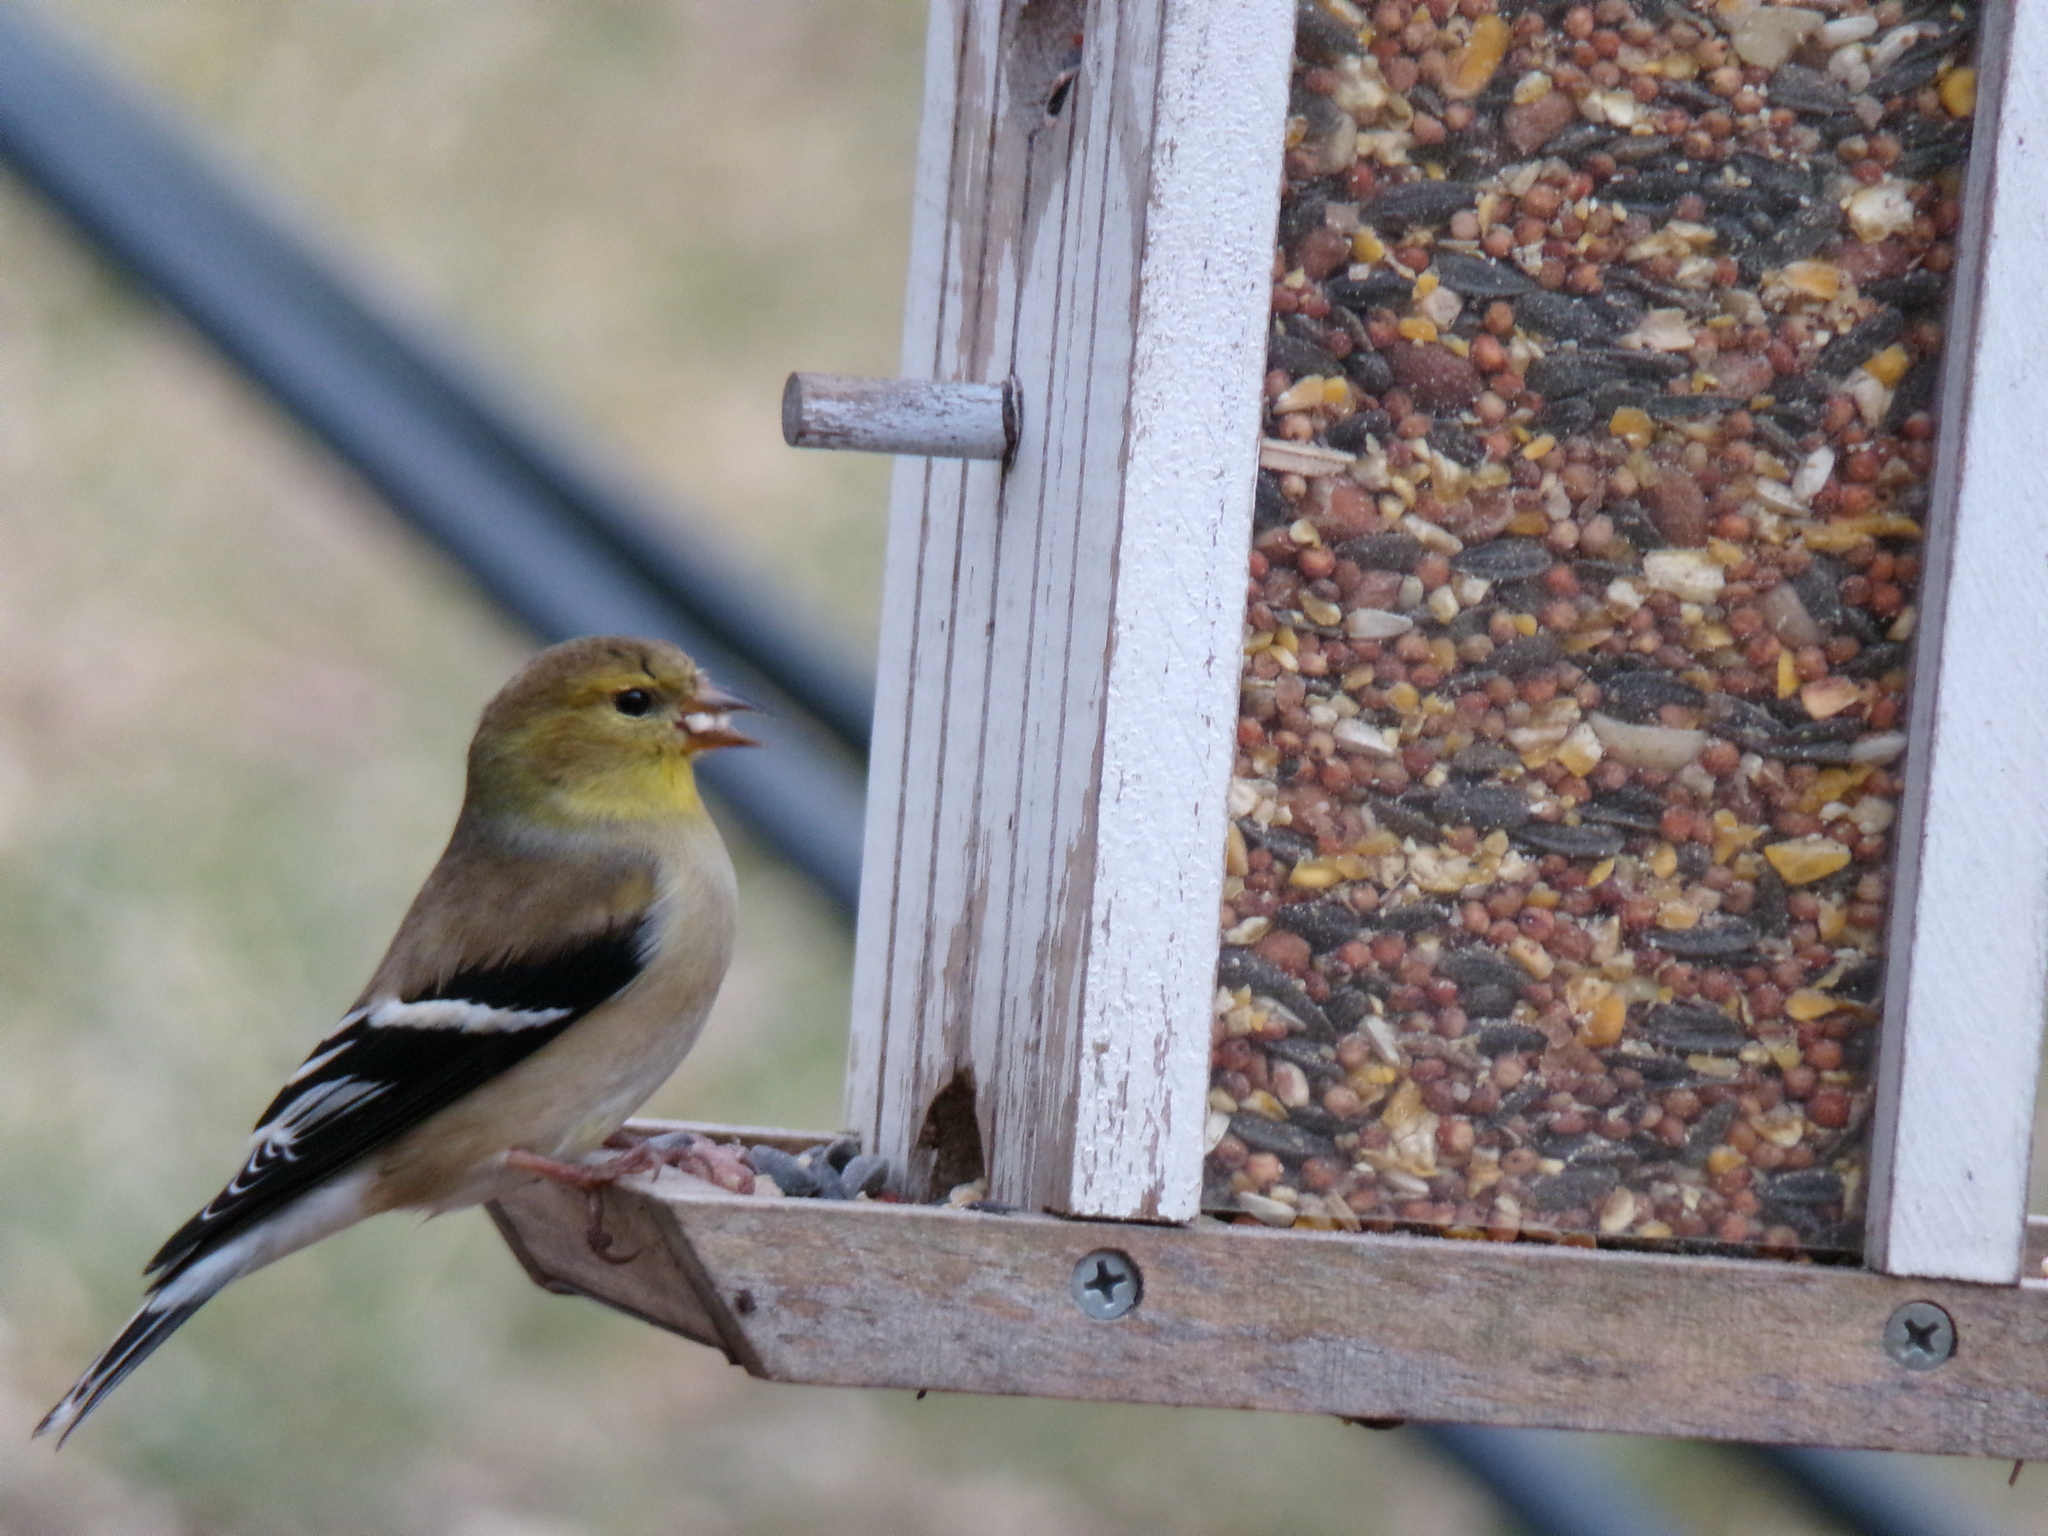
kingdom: Animalia
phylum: Chordata
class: Aves
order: Passeriformes
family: Fringillidae
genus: Spinus
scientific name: Spinus tristis
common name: American goldfinch
